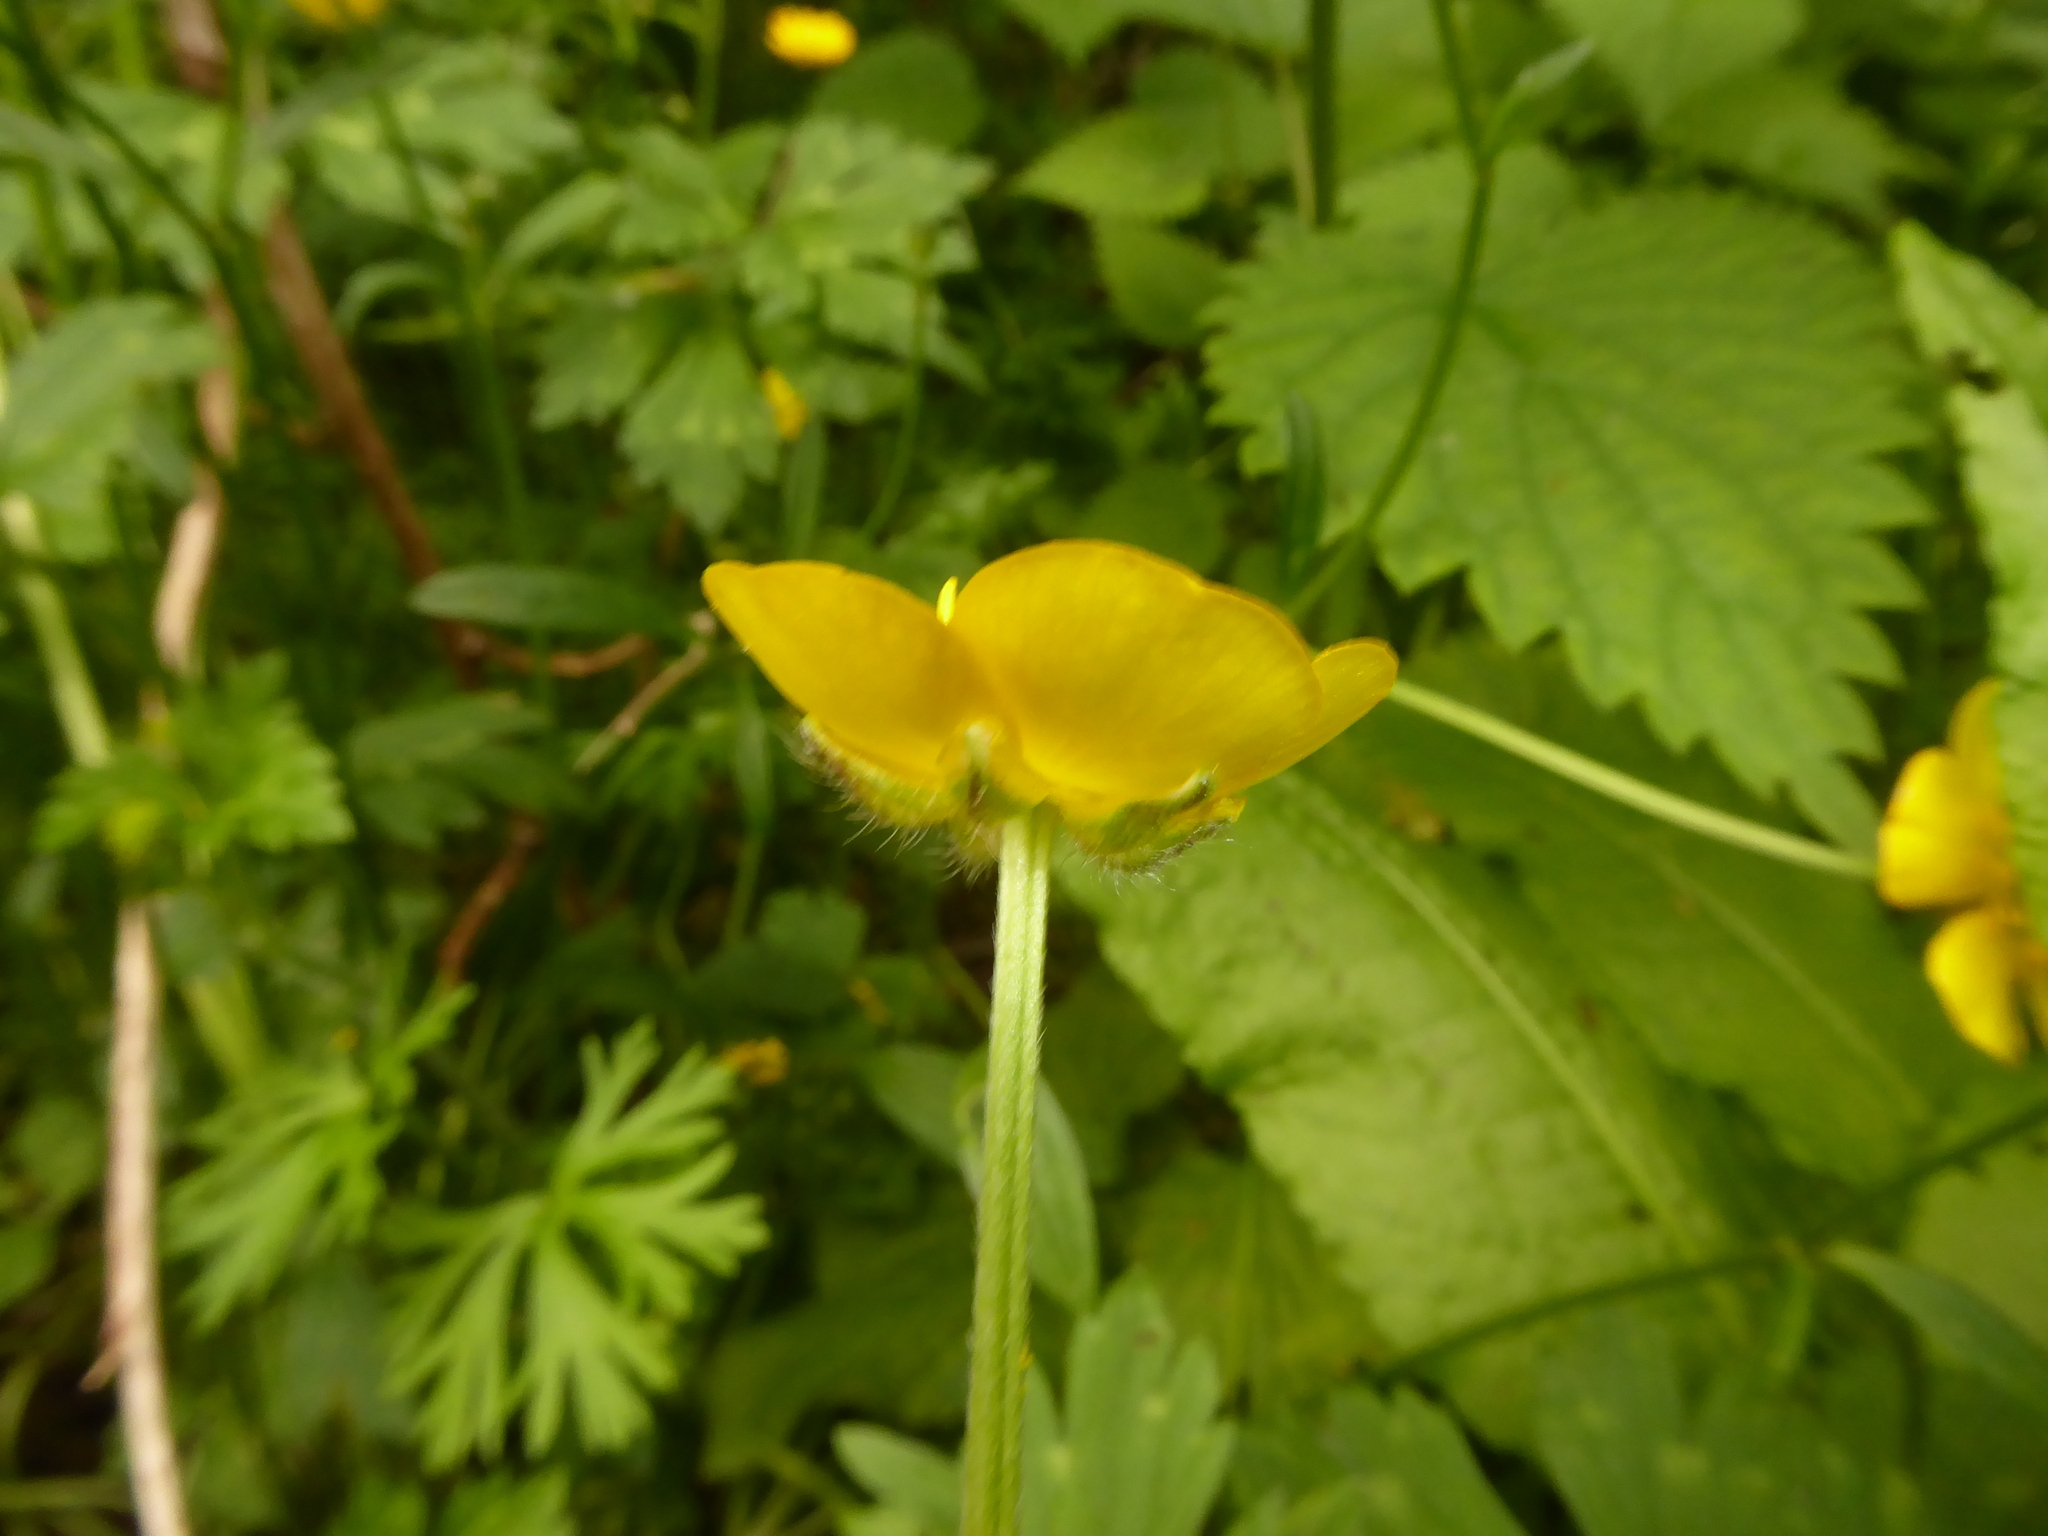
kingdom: Plantae
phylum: Tracheophyta
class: Magnoliopsida
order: Ranunculales
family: Ranunculaceae
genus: Ranunculus
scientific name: Ranunculus repens
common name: Creeping buttercup
